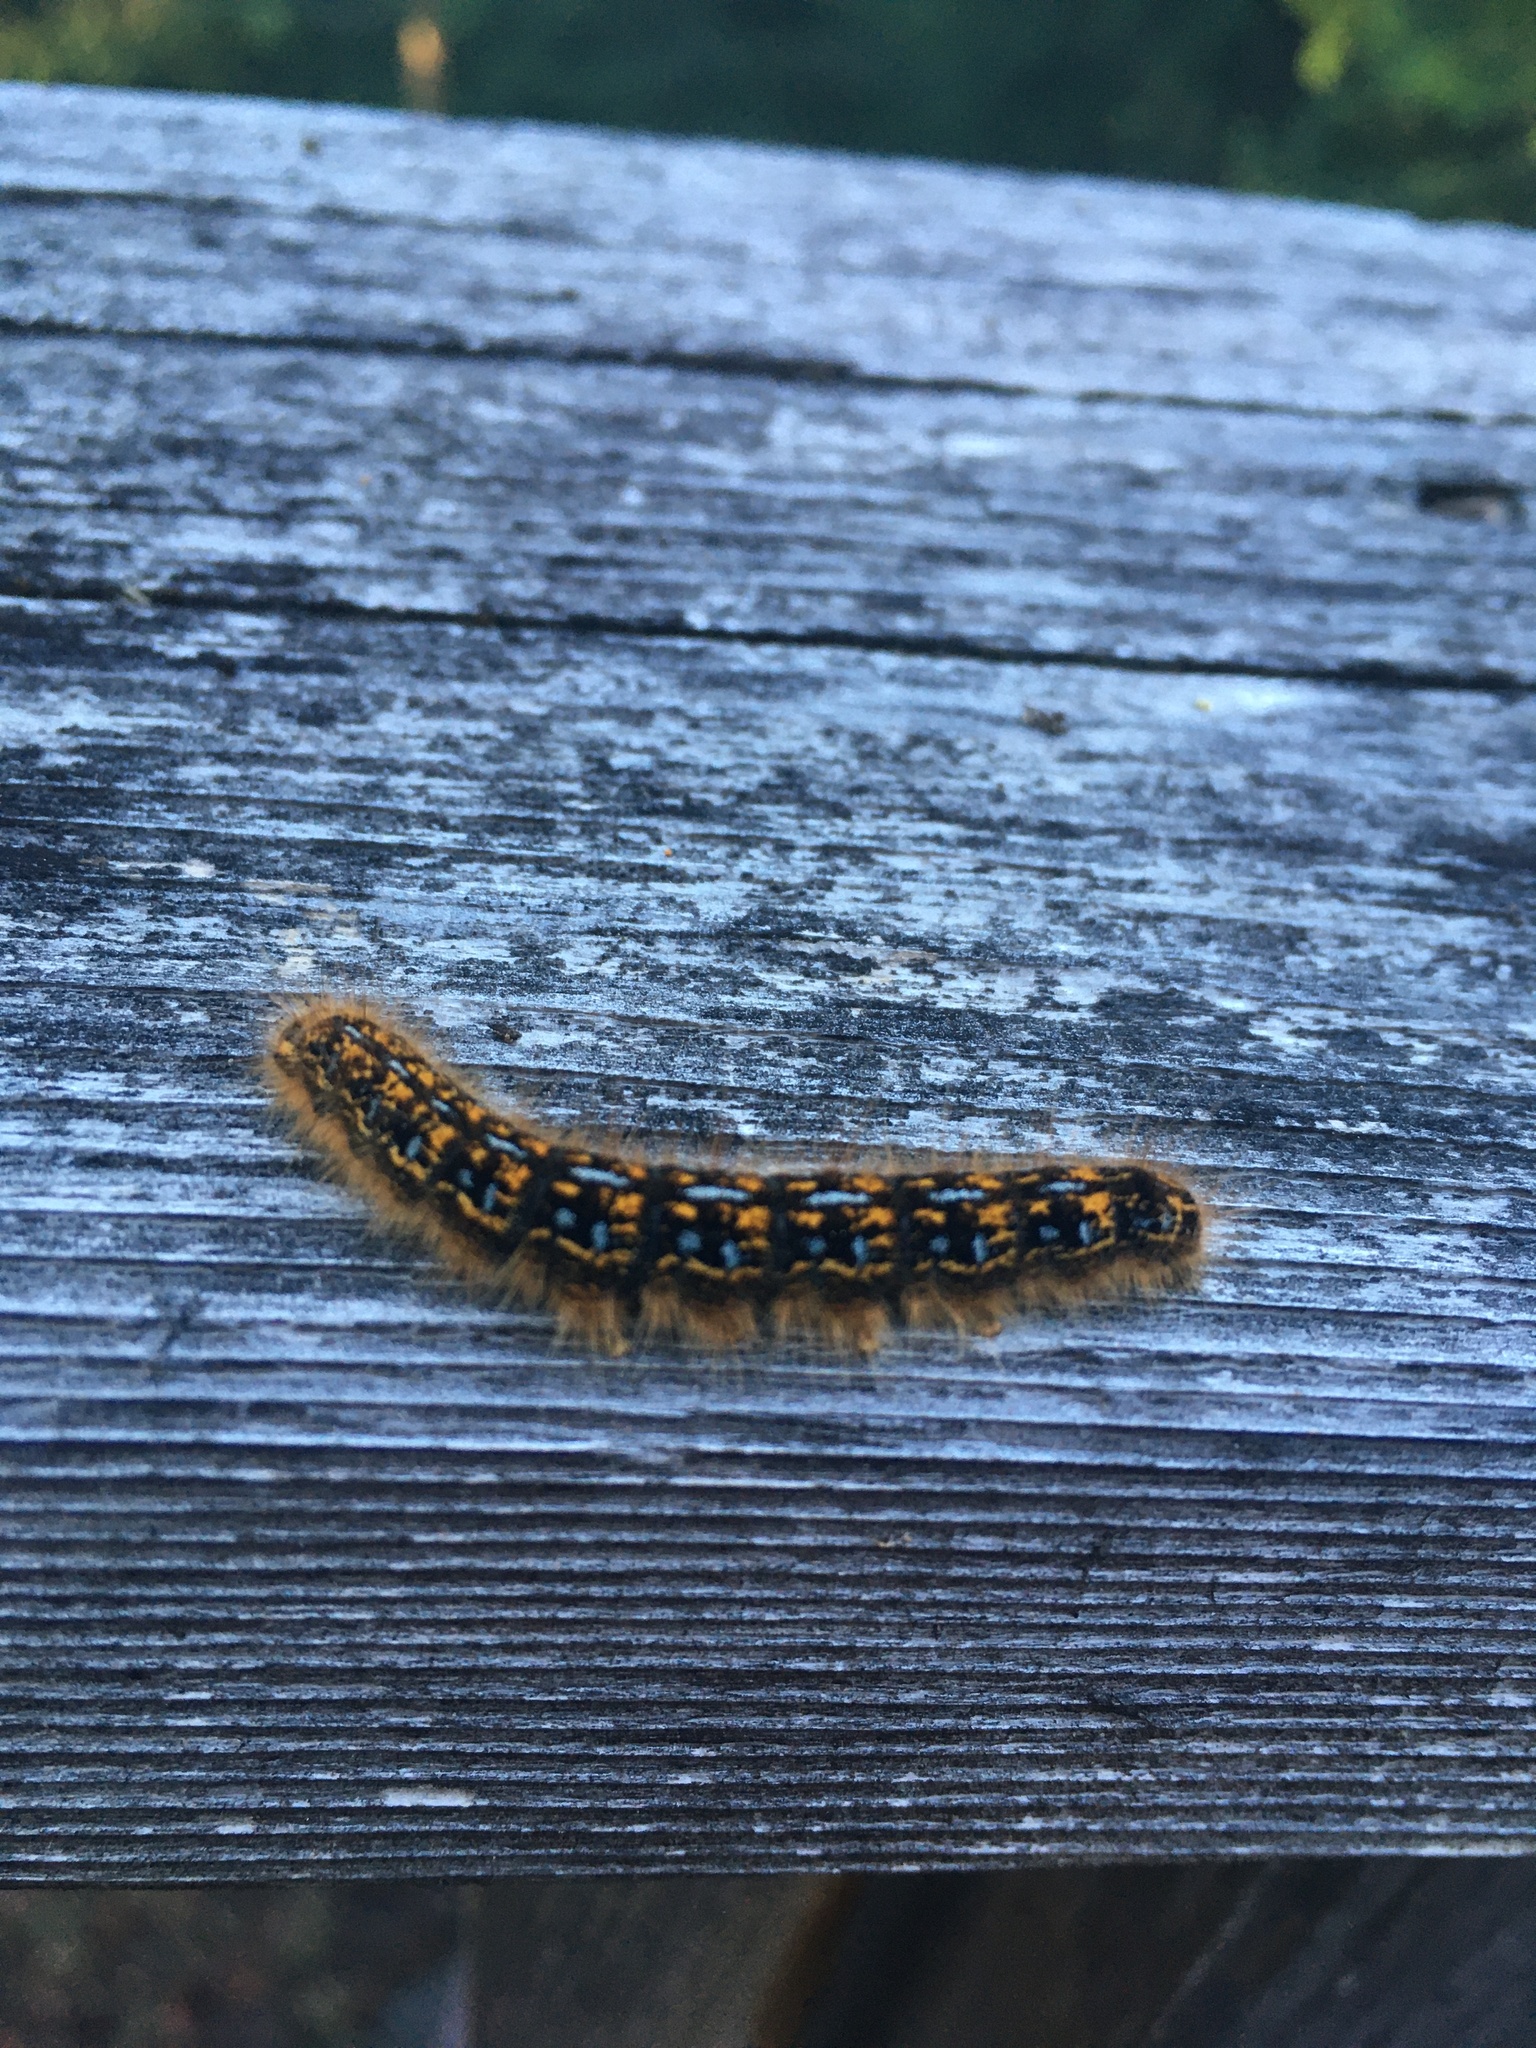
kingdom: Animalia
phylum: Arthropoda
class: Insecta
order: Lepidoptera
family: Lasiocampidae
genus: Malacosoma
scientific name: Malacosoma californica
